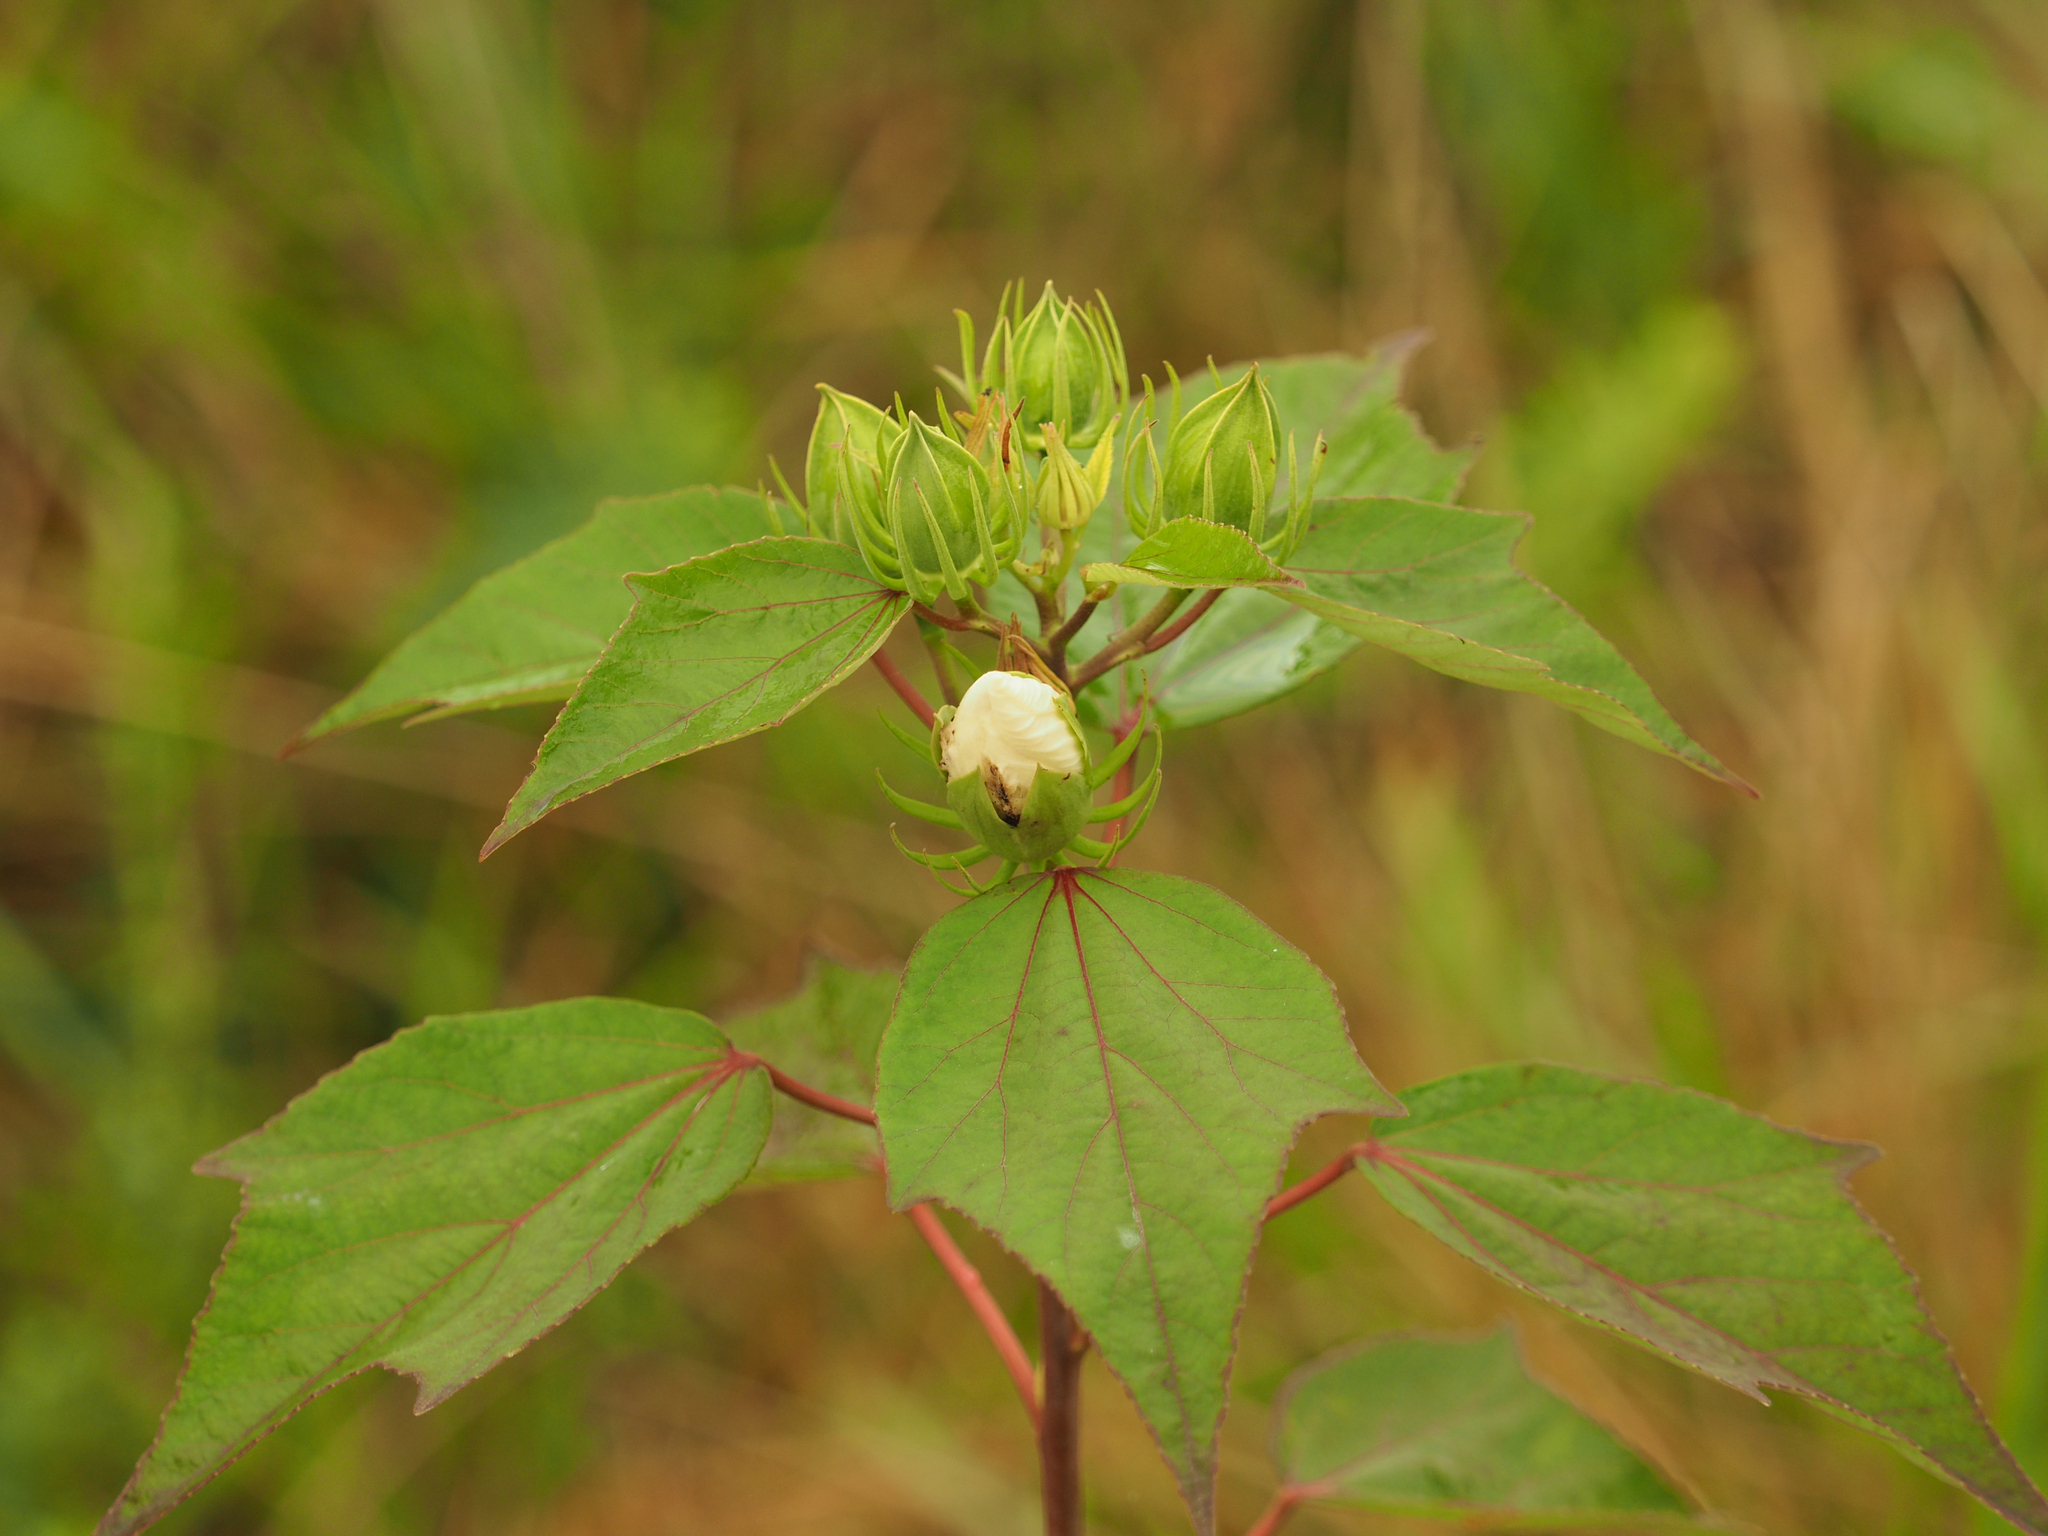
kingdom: Plantae
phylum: Tracheophyta
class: Magnoliopsida
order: Malvales
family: Malvaceae
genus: Hibiscus
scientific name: Hibiscus moscheutos
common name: Common rose-mallow
